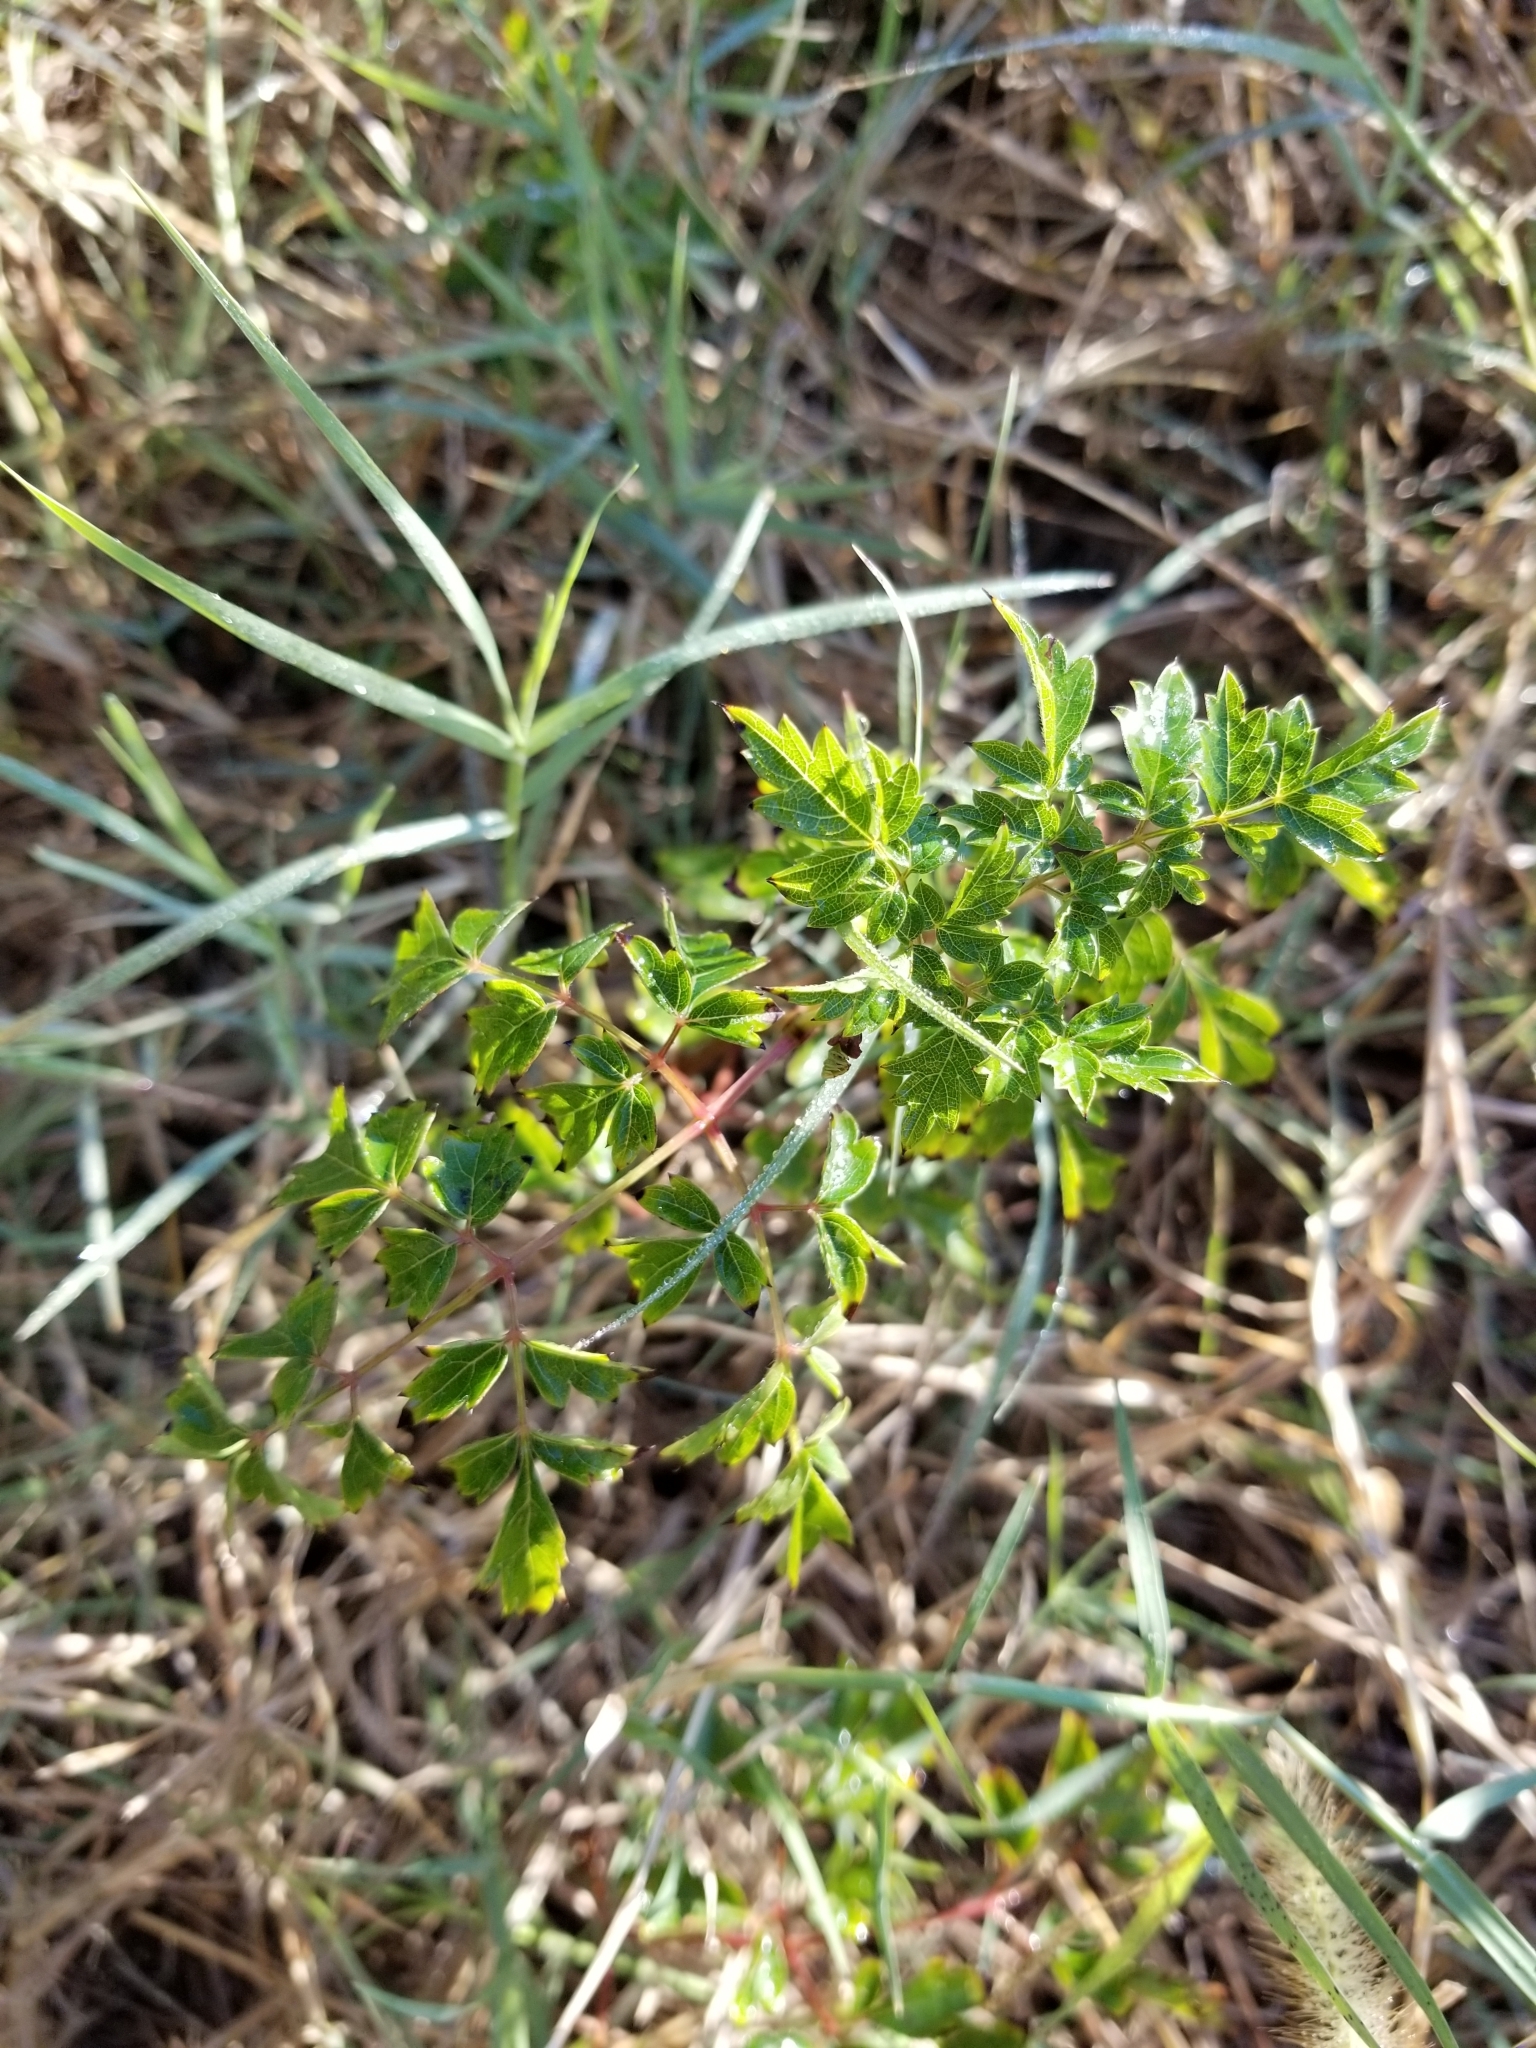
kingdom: Plantae
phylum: Tracheophyta
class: Magnoliopsida
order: Vitales
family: Vitaceae
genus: Nekemias
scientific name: Nekemias arborea
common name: Peppervine
